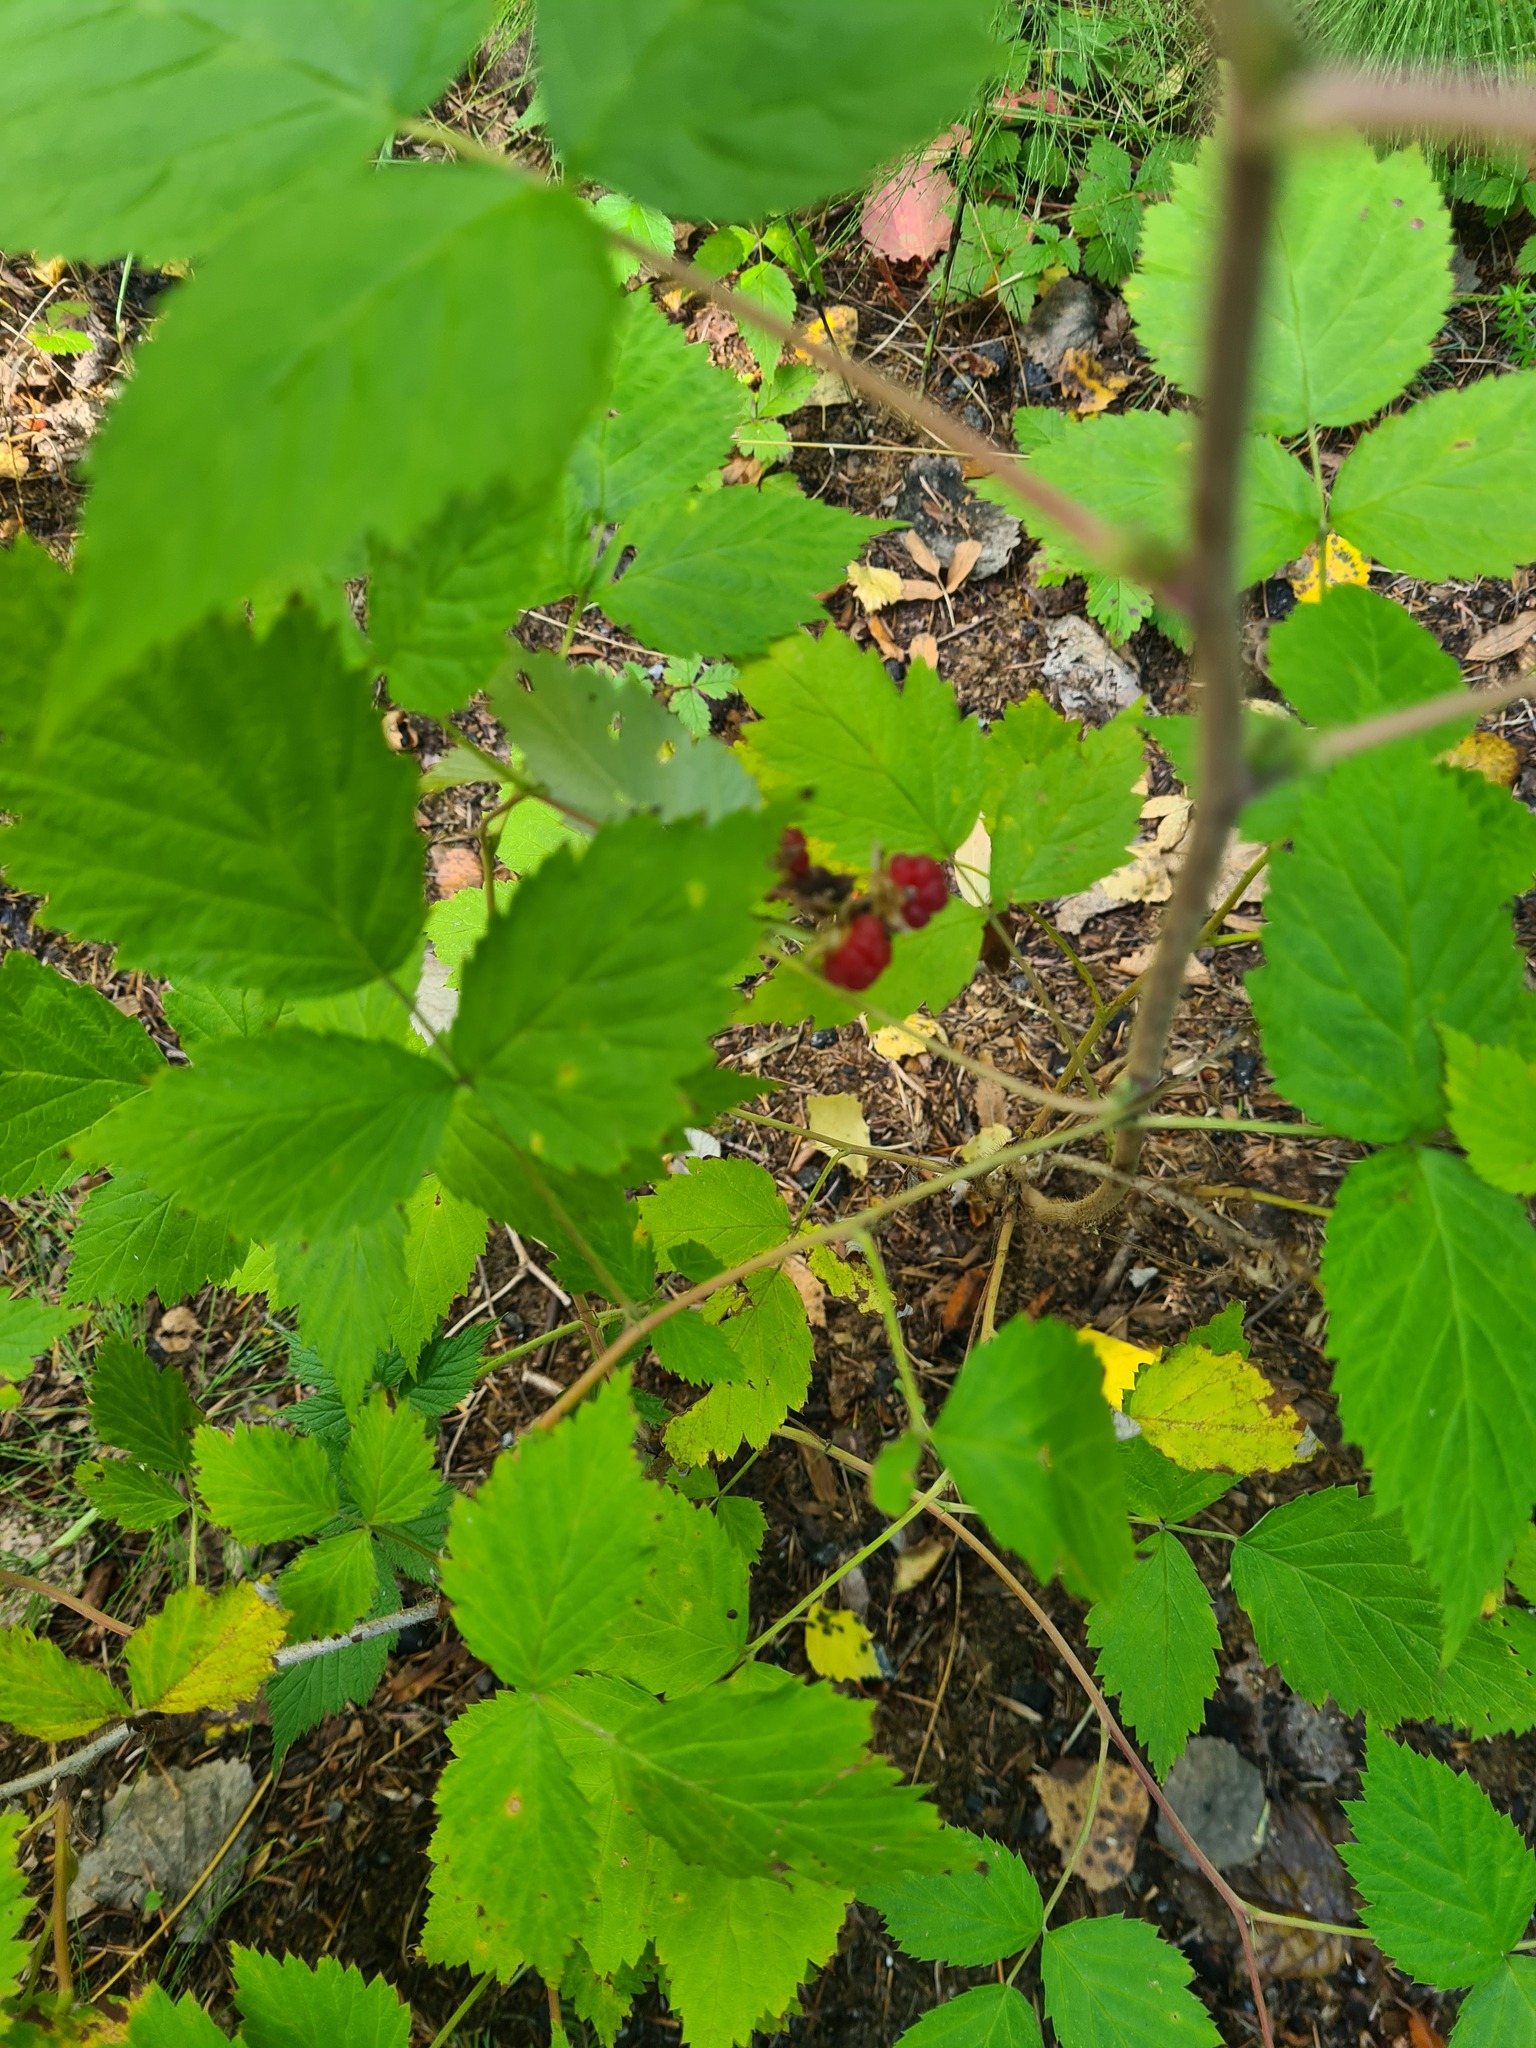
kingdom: Plantae
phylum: Tracheophyta
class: Magnoliopsida
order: Rosales
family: Rosaceae
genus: Rubus
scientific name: Rubus idaeus
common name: Raspberry
